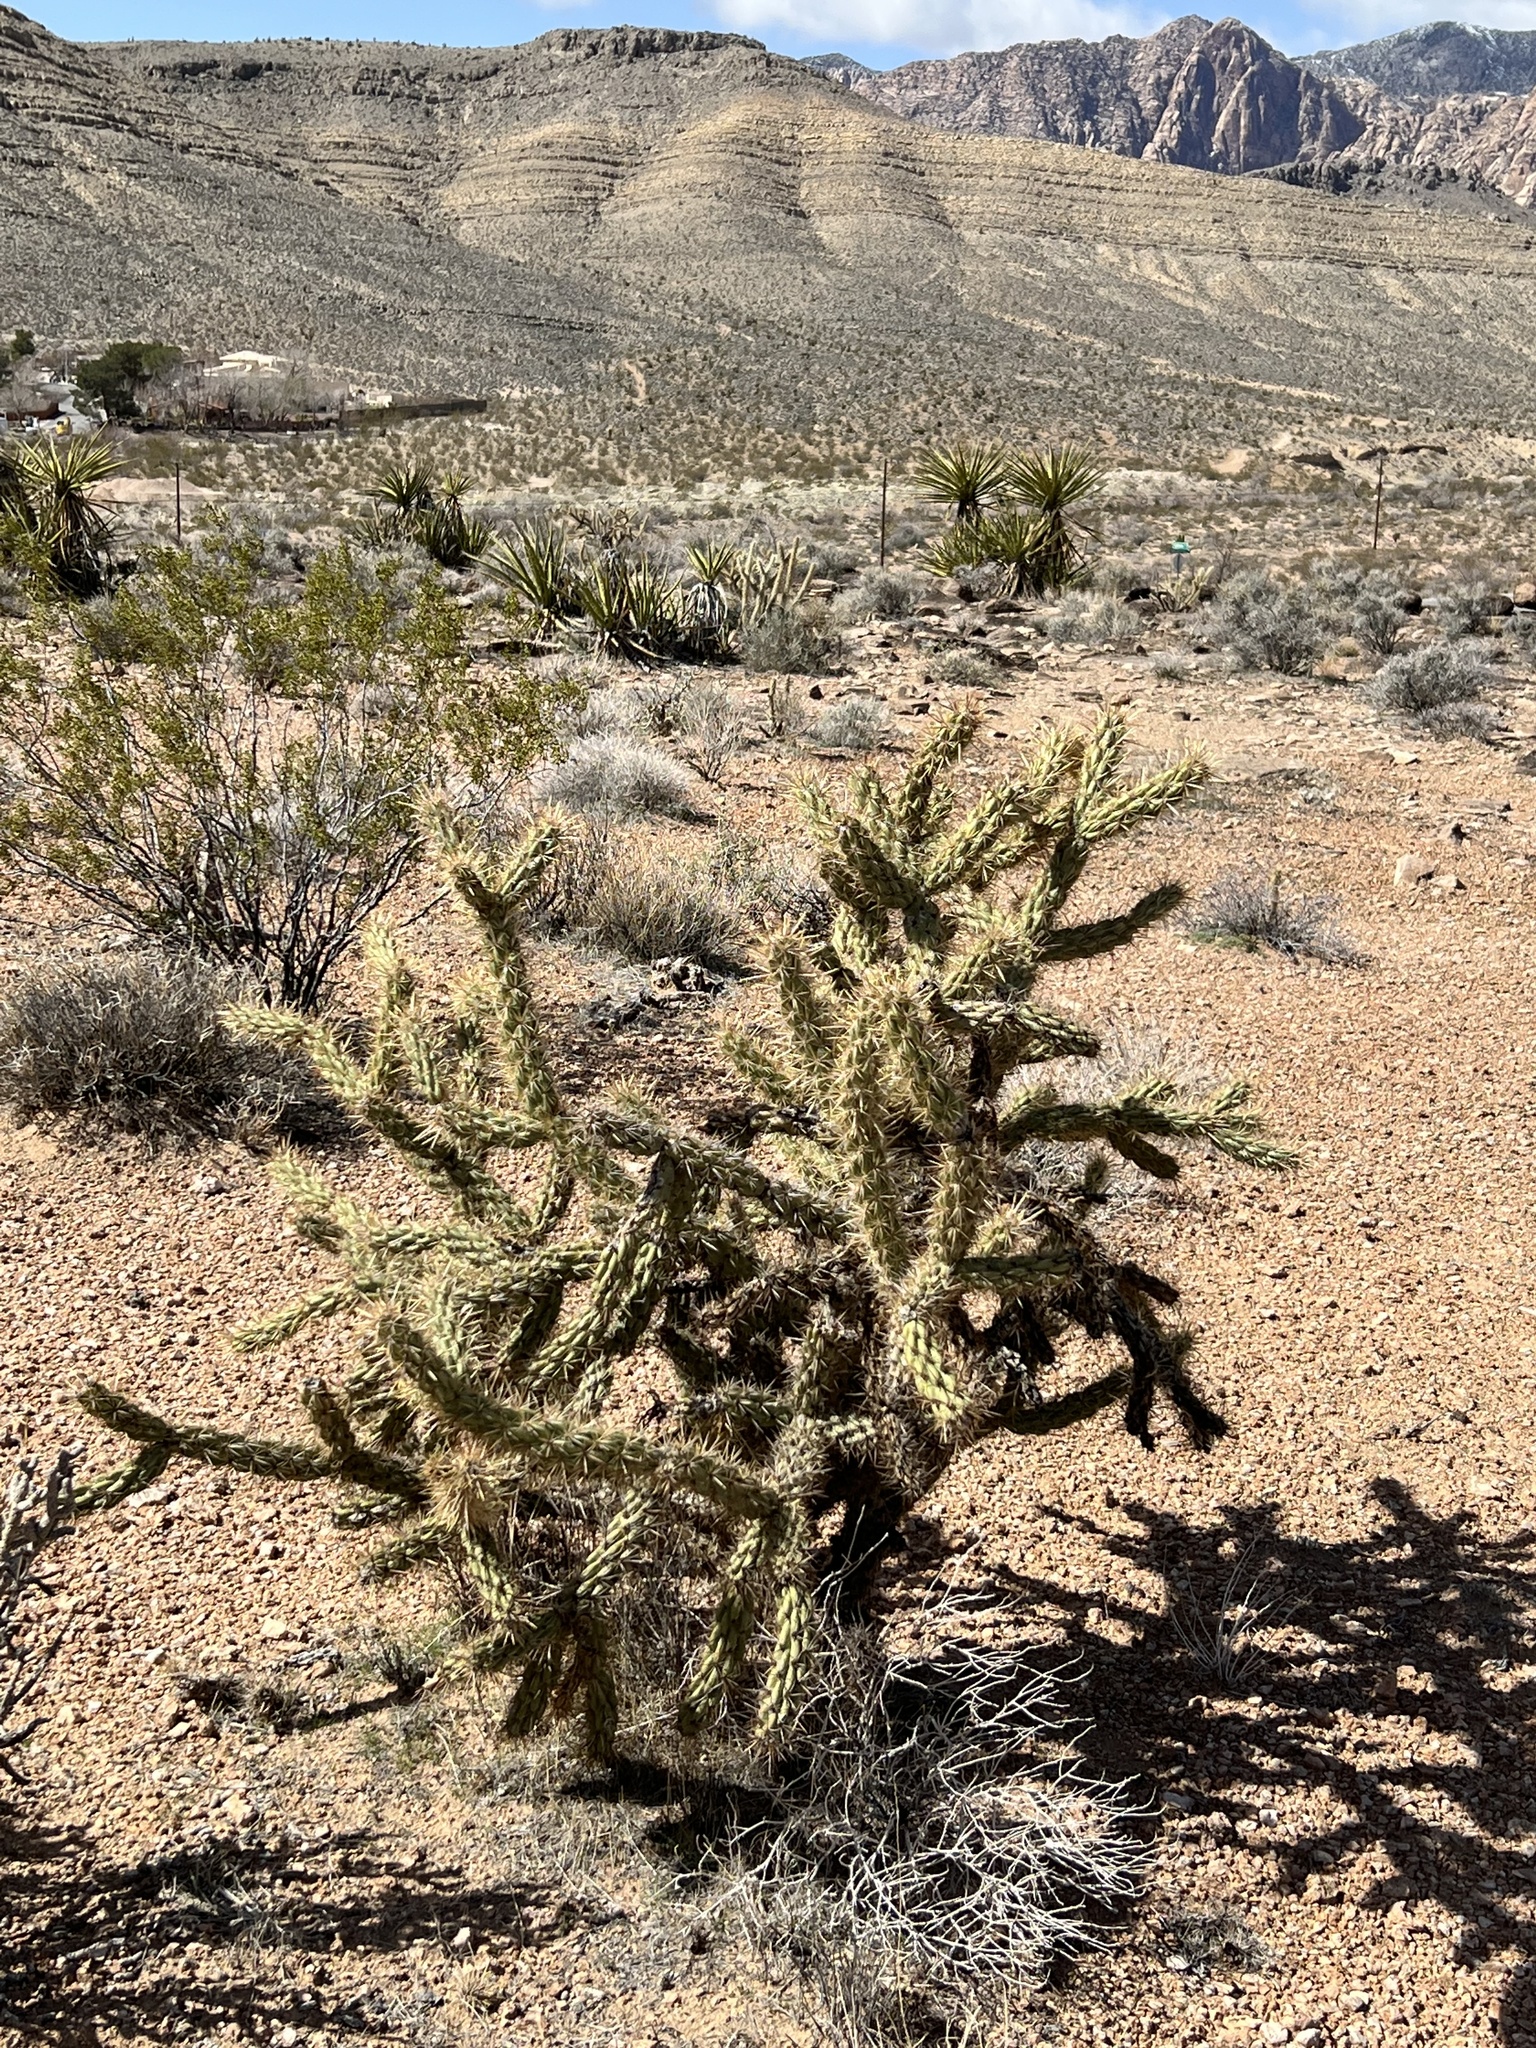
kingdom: Plantae
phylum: Tracheophyta
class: Magnoliopsida
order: Caryophyllales
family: Cactaceae
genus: Cylindropuntia
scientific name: Cylindropuntia acanthocarpa
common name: Buckhorn cholla
